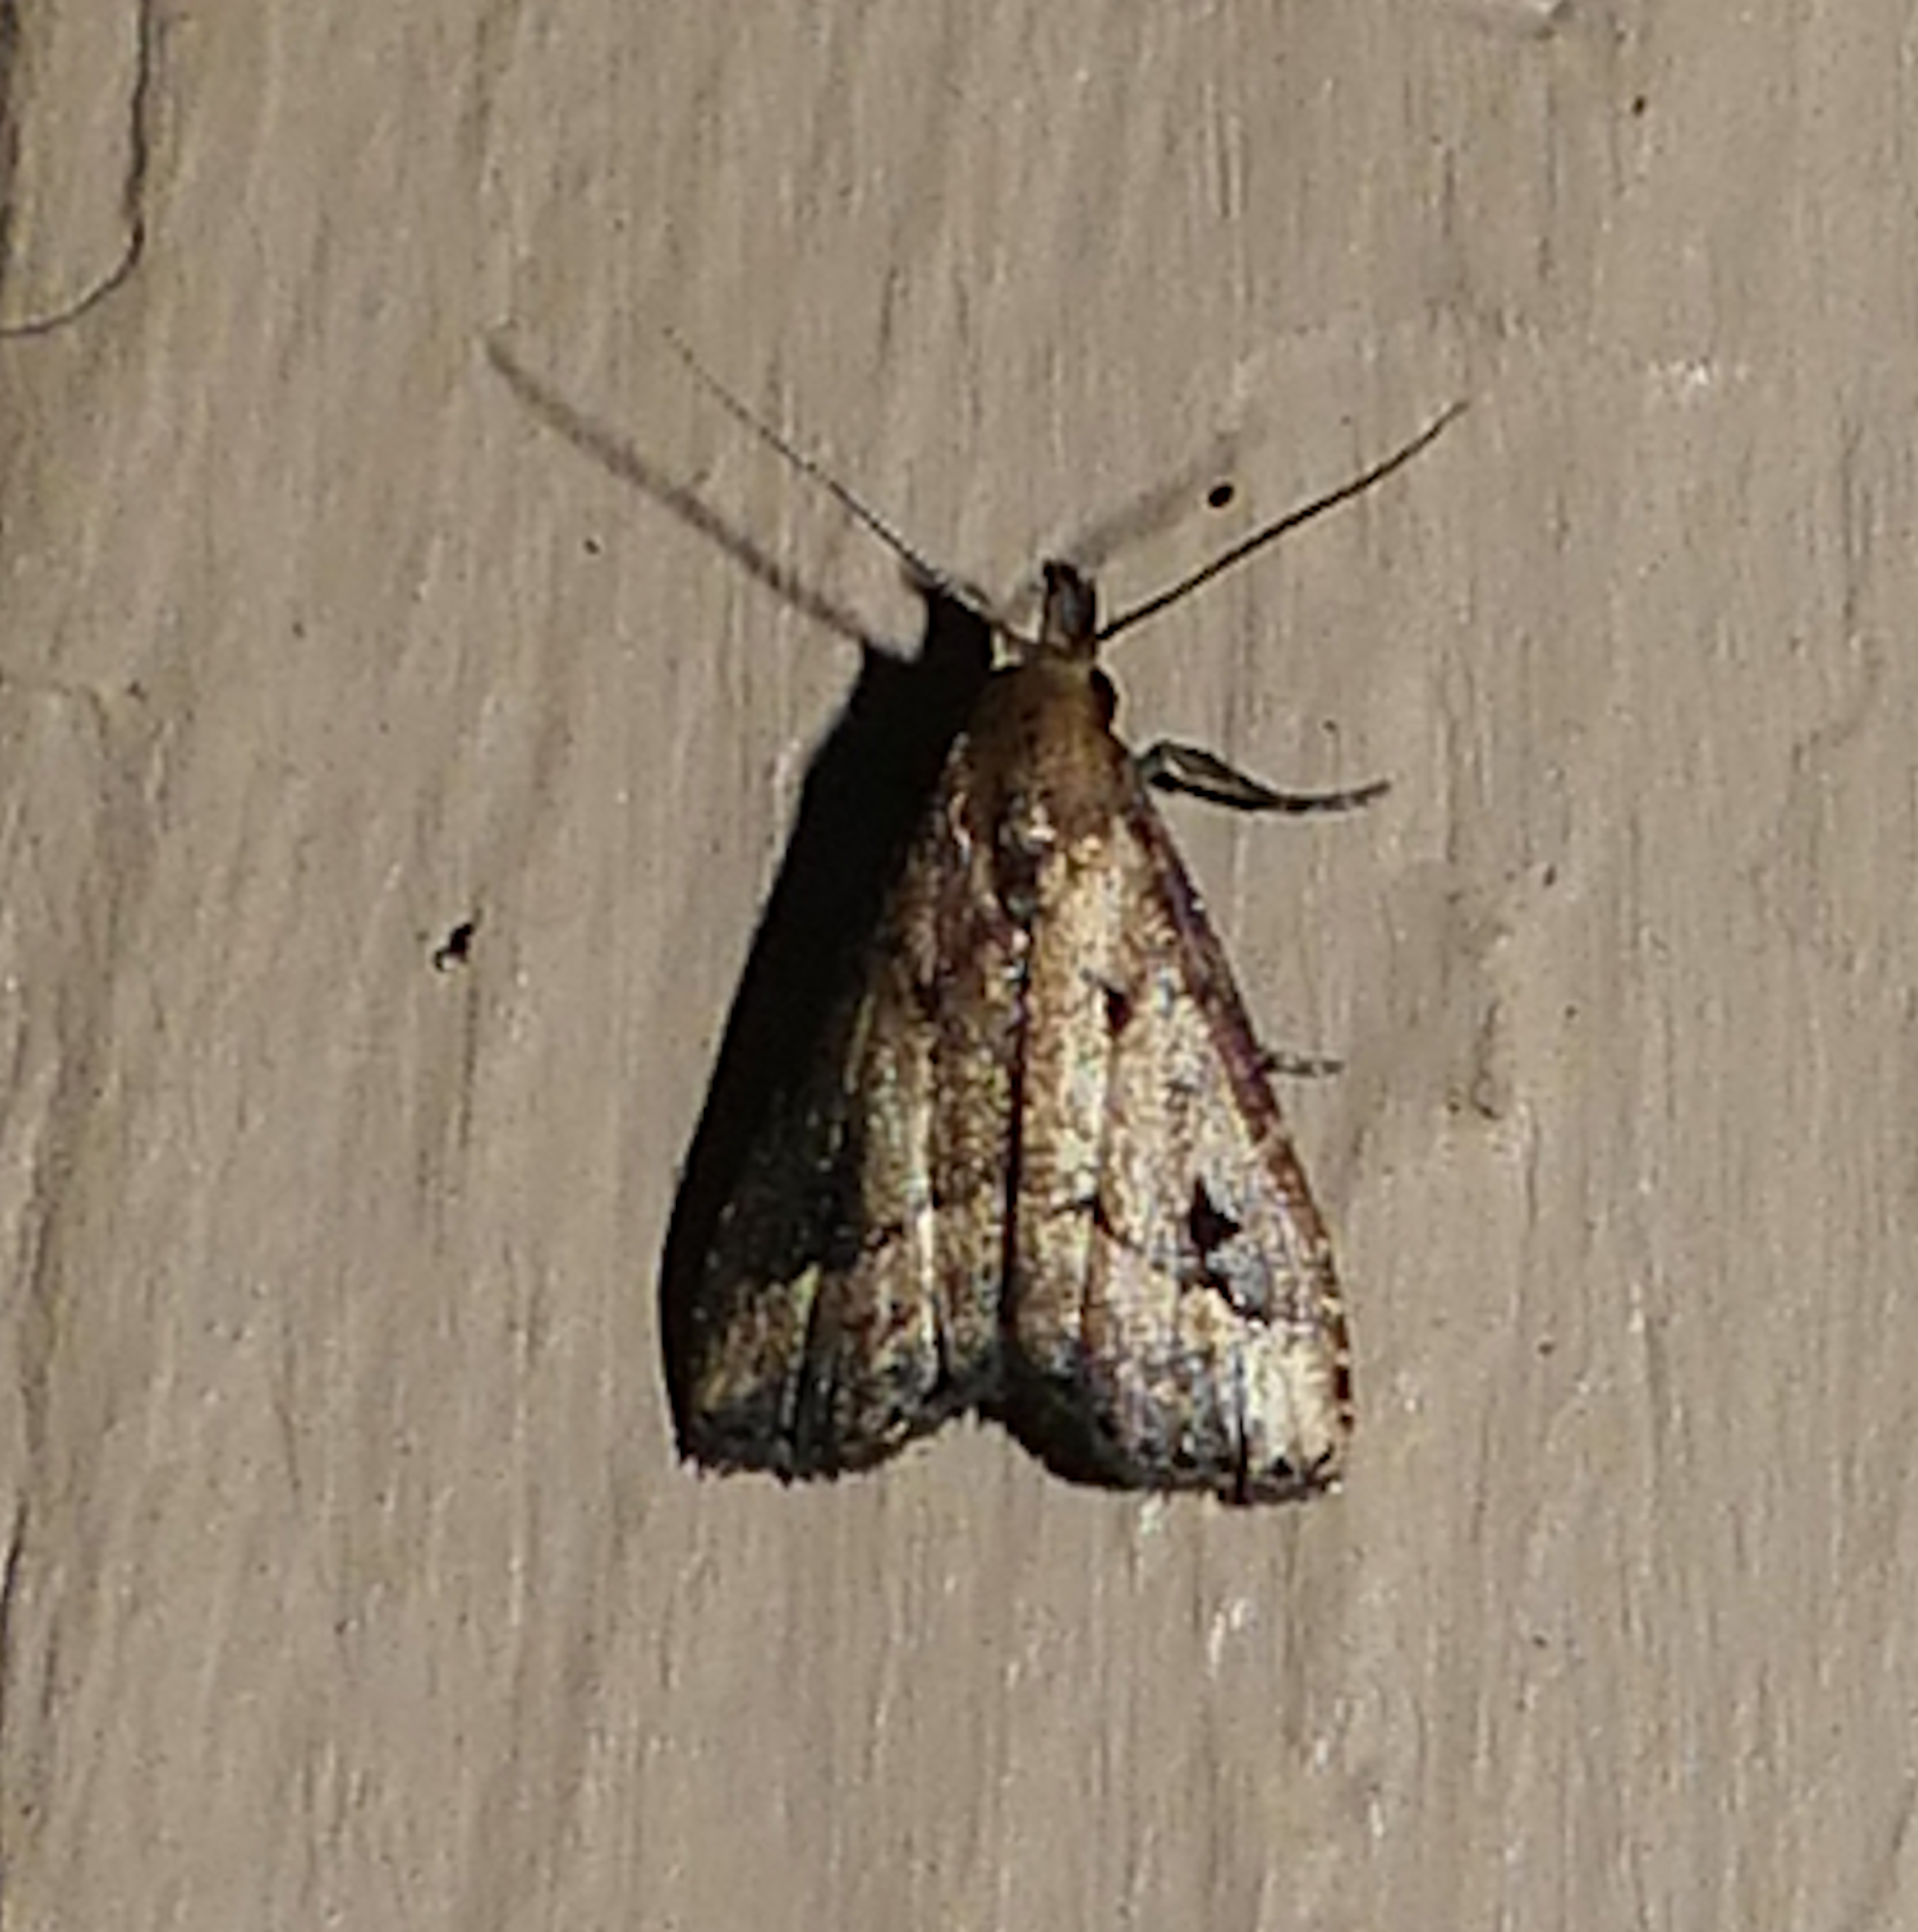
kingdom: Animalia
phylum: Arthropoda
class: Insecta
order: Lepidoptera
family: Erebidae
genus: Schrankia
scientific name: Schrankia
